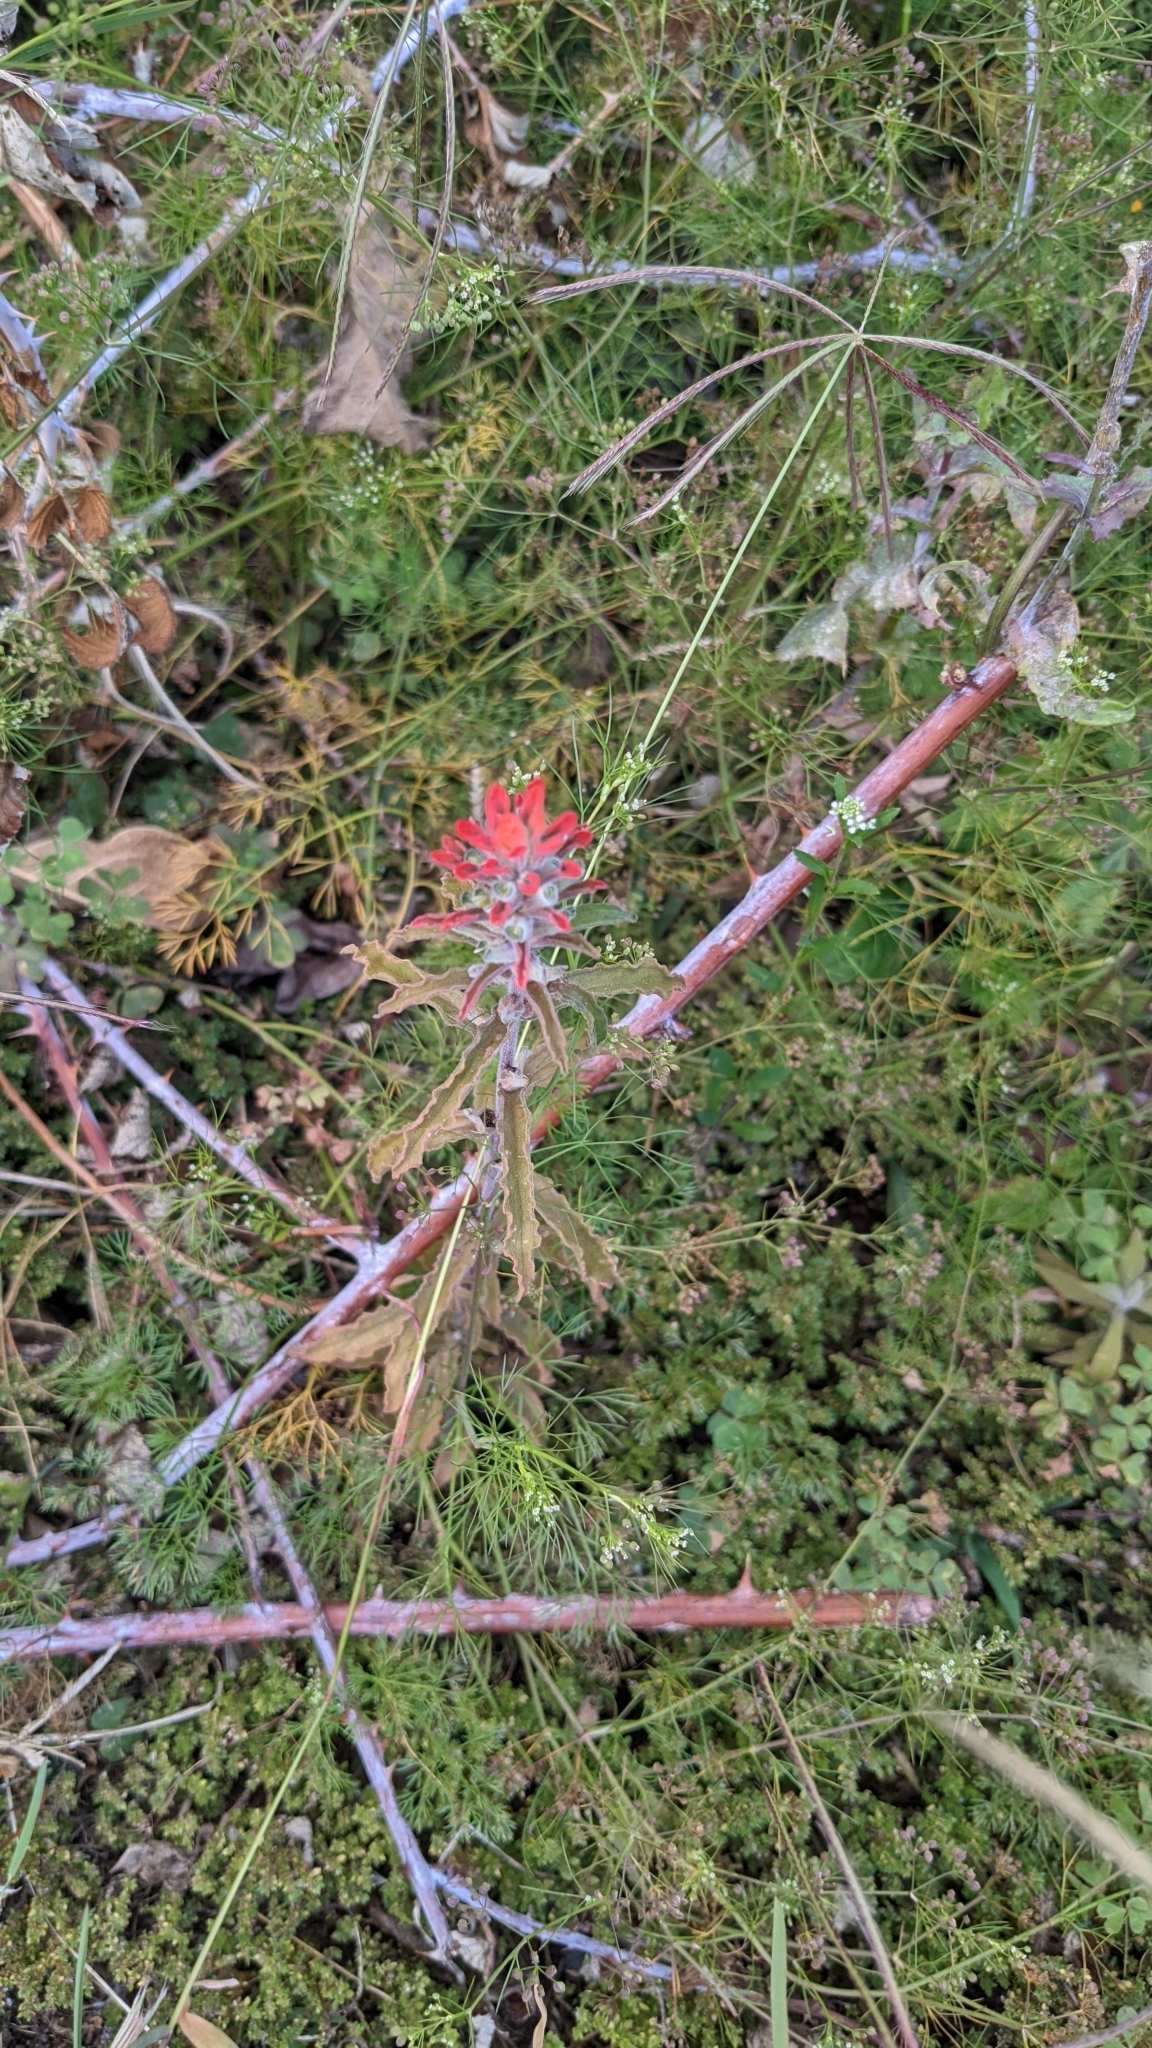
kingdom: Plantae
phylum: Tracheophyta
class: Magnoliopsida
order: Lamiales
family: Orobanchaceae
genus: Castilleja
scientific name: Castilleja arvensis
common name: Indian paintbrush
